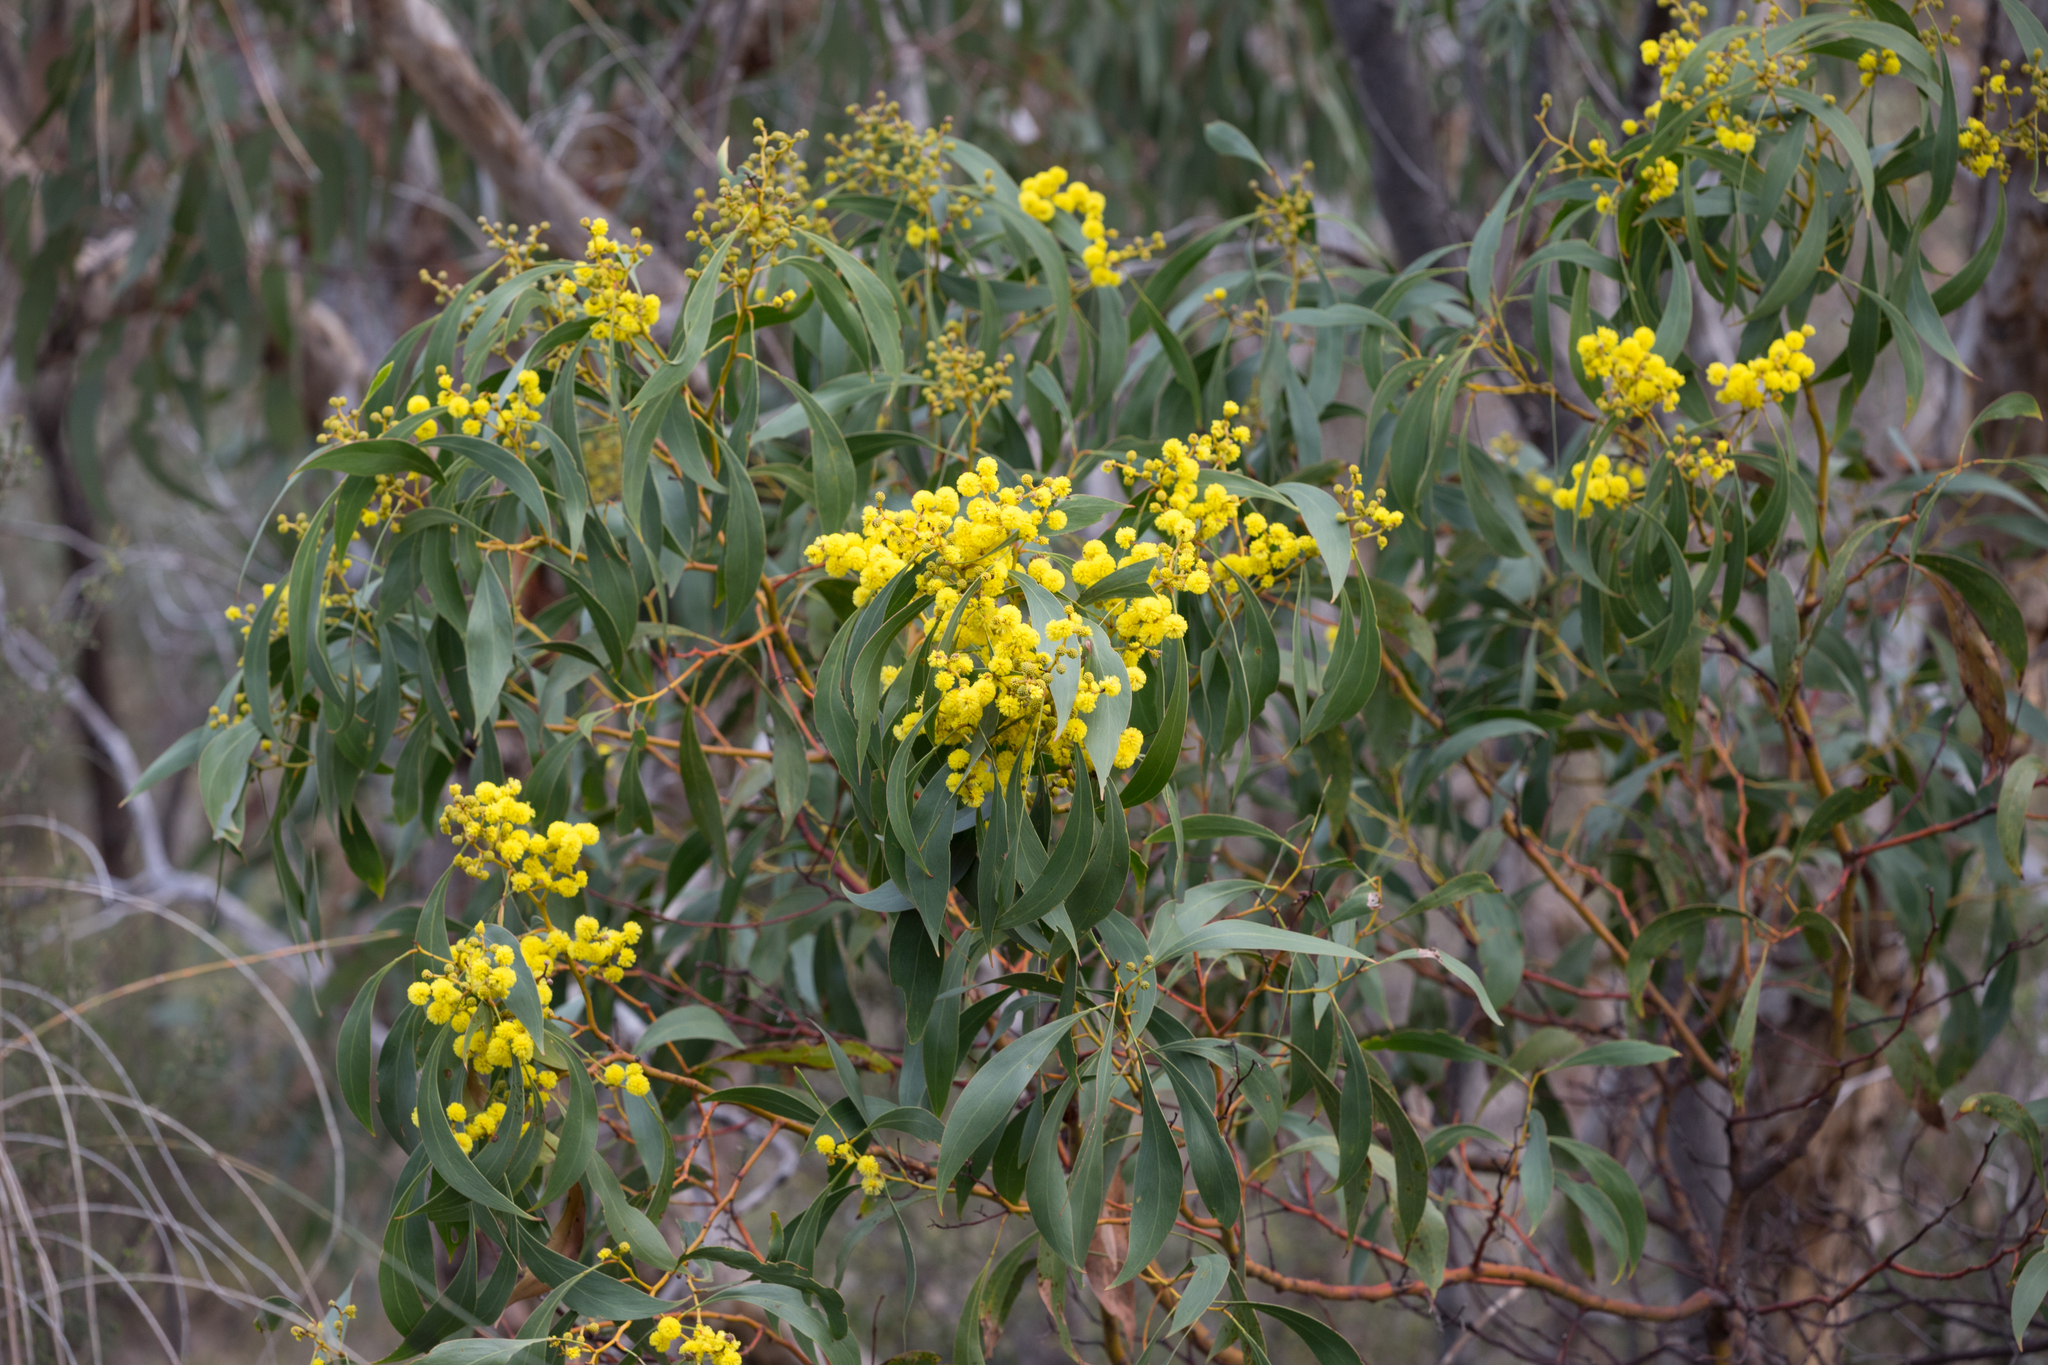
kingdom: Plantae
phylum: Tracheophyta
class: Magnoliopsida
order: Fabales
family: Fabaceae
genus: Acacia
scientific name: Acacia pycnantha
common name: Golden wattle
